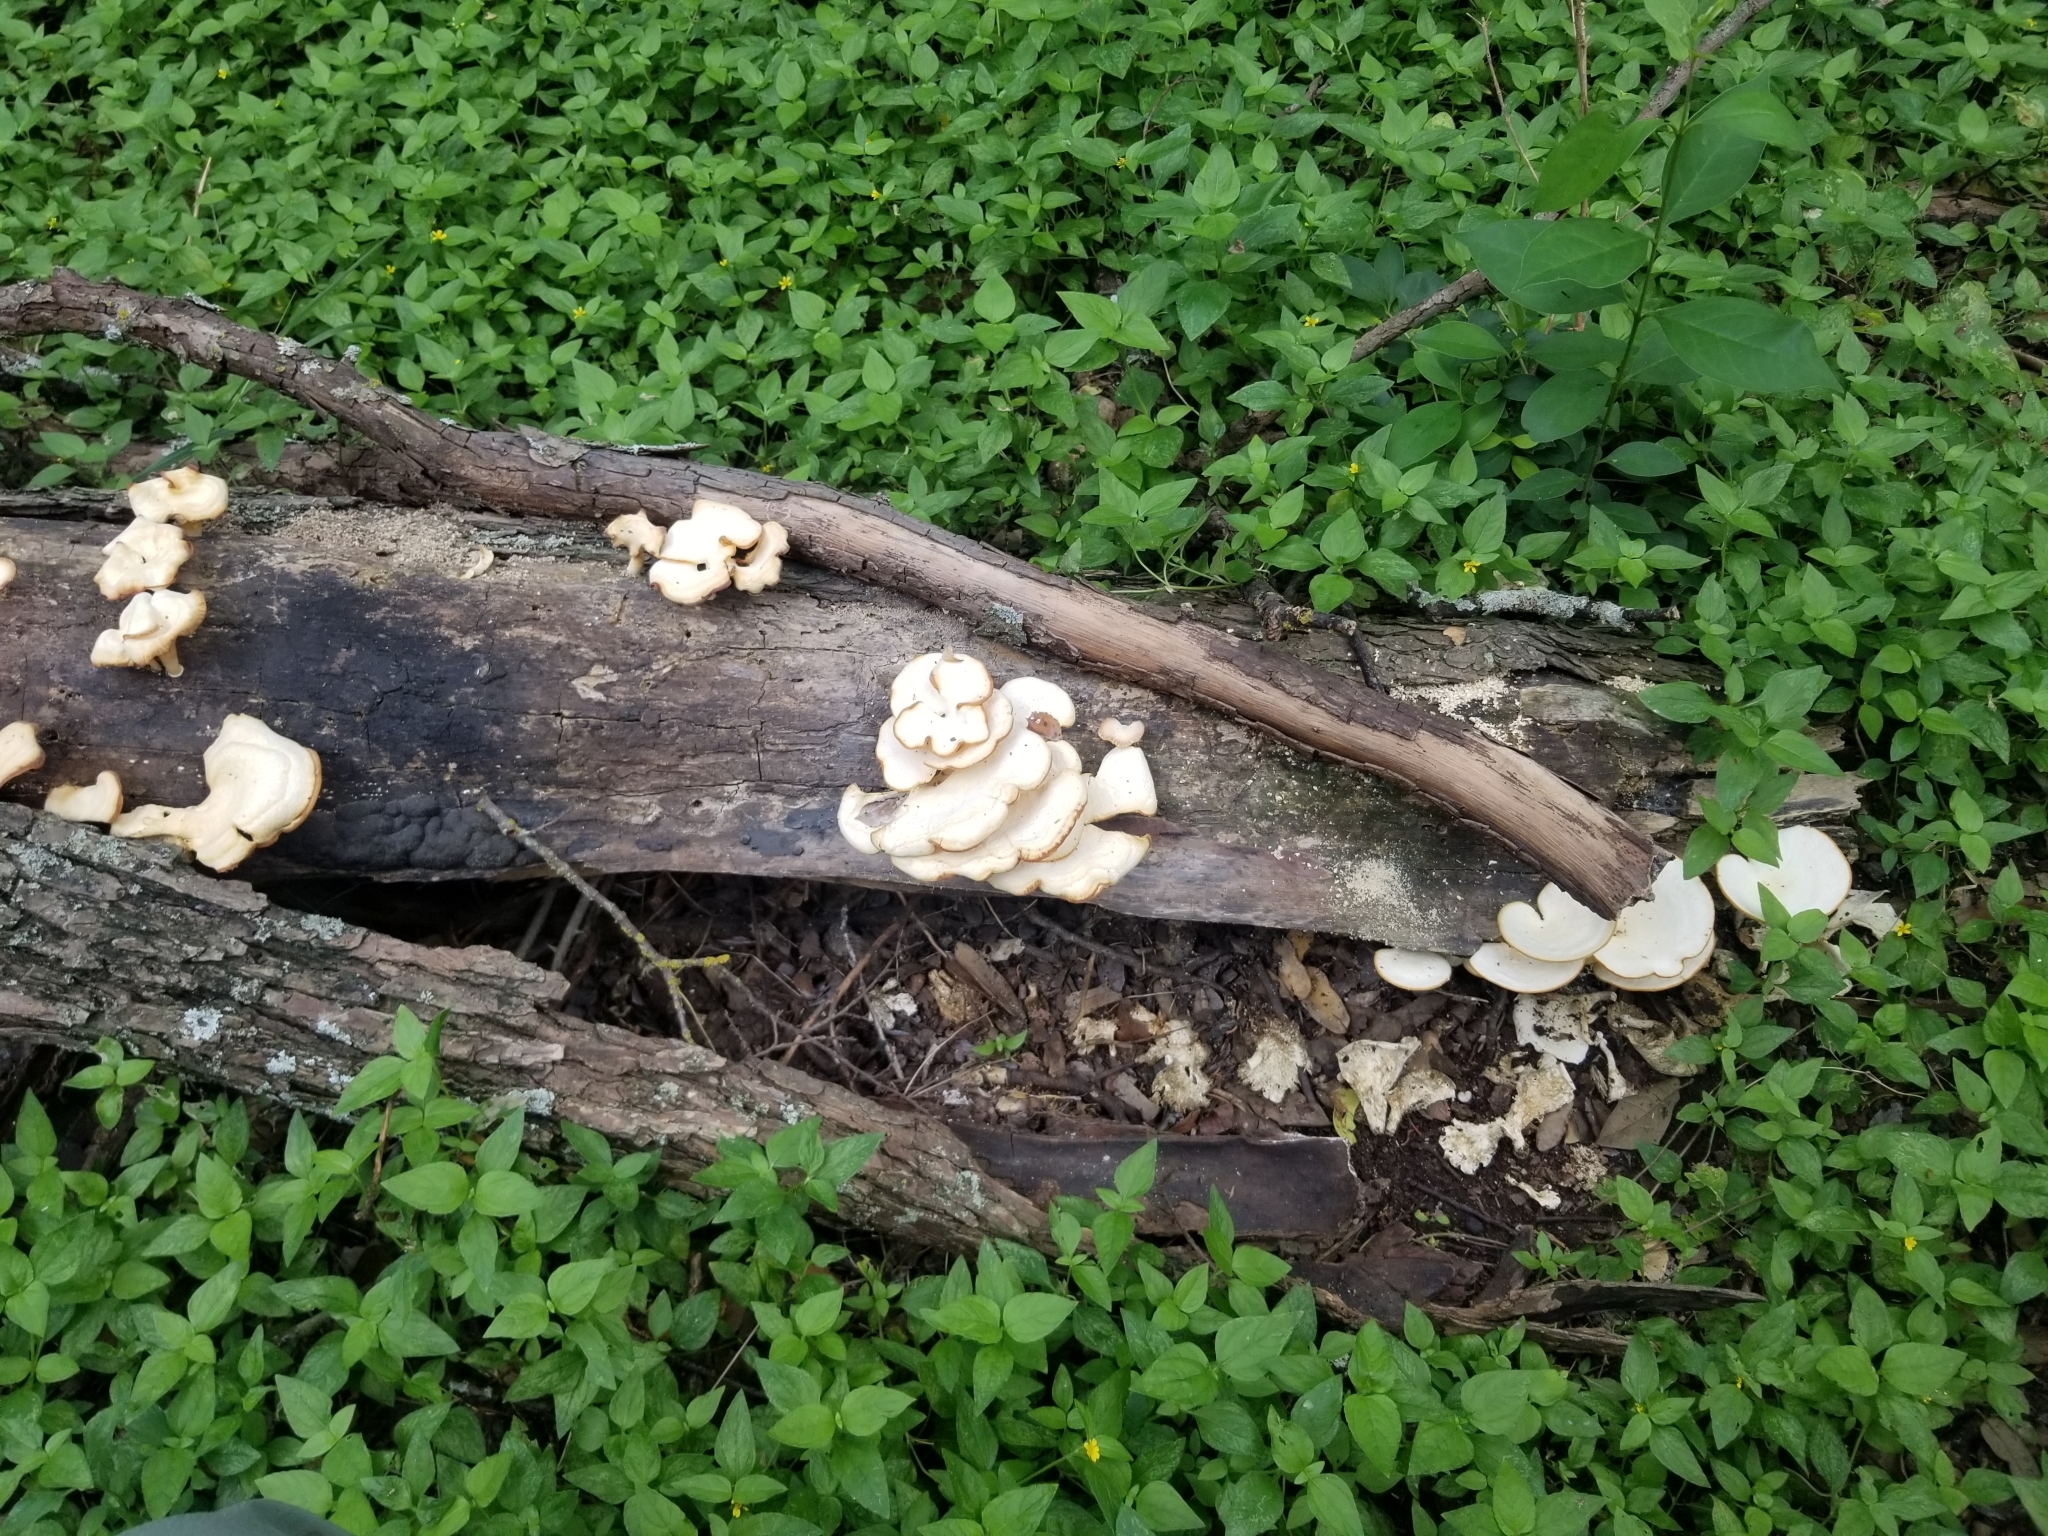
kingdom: Fungi
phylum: Basidiomycota
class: Agaricomycetes
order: Polyporales
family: Polyporaceae
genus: Favolus
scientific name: Favolus tenuiculus
